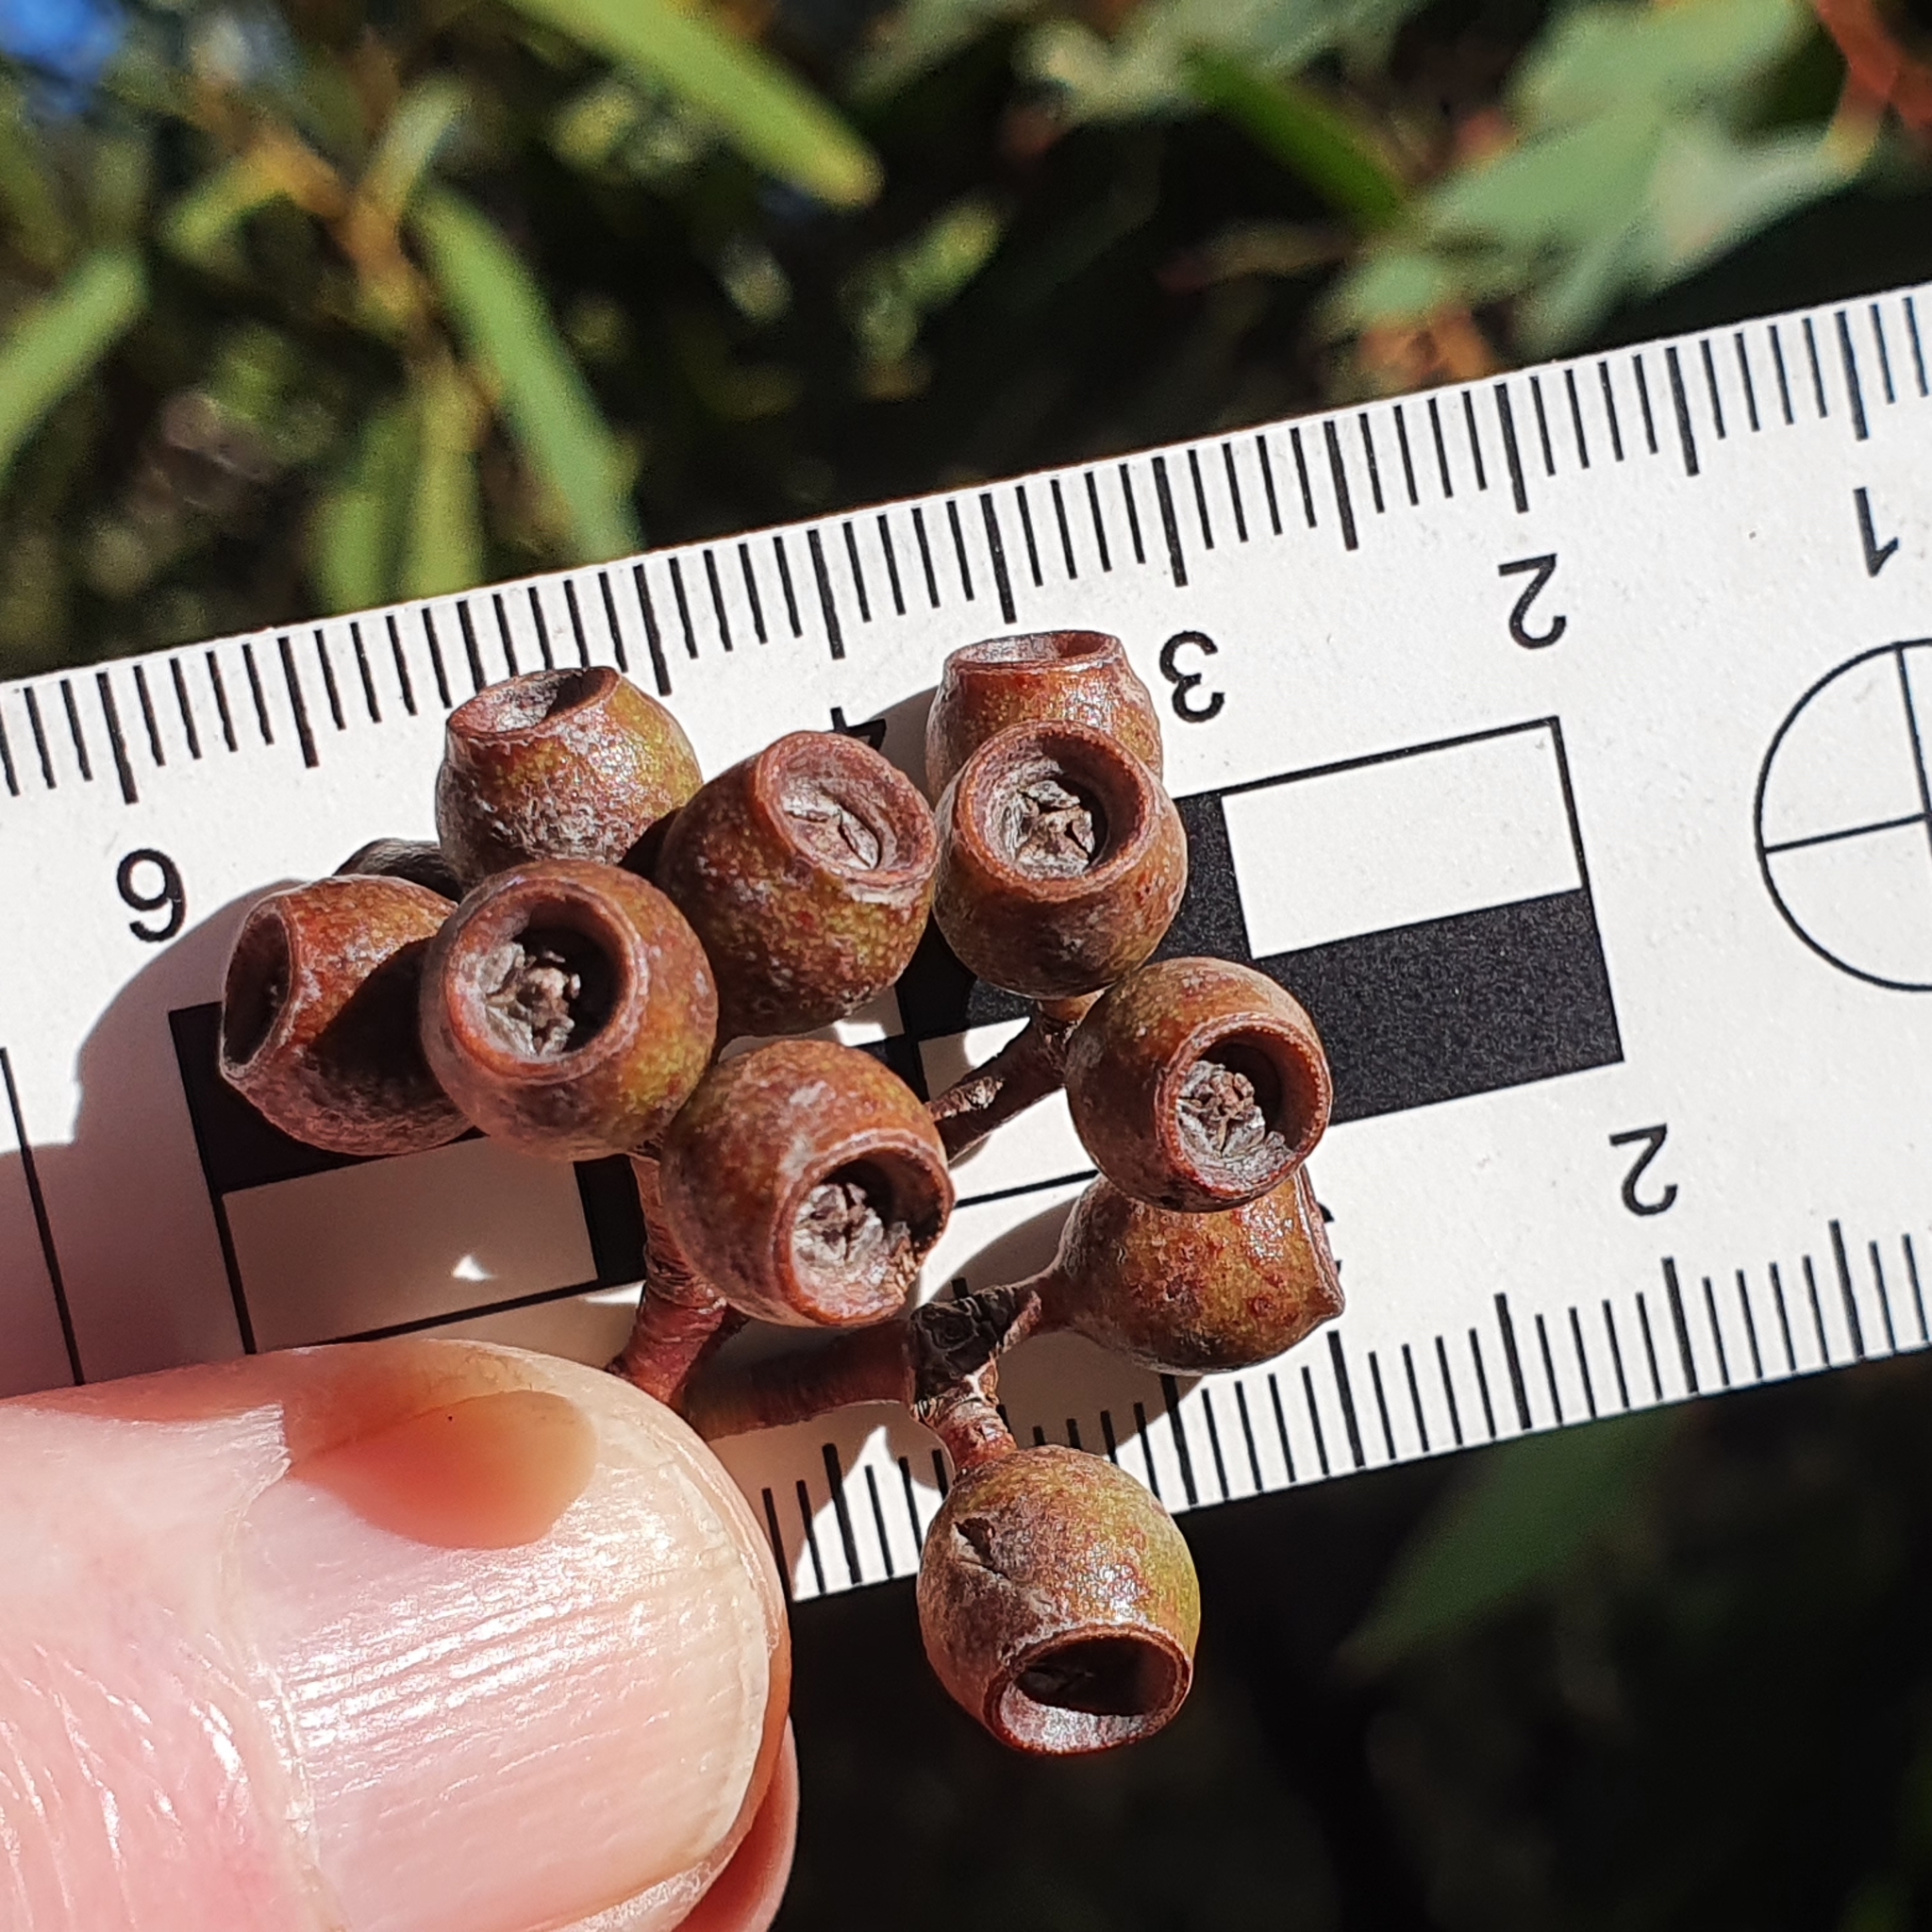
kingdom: Plantae
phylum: Tracheophyta
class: Magnoliopsida
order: Myrtales
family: Myrtaceae
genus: Eucalyptus
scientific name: Eucalyptus piperita
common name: Sydney peppermint
